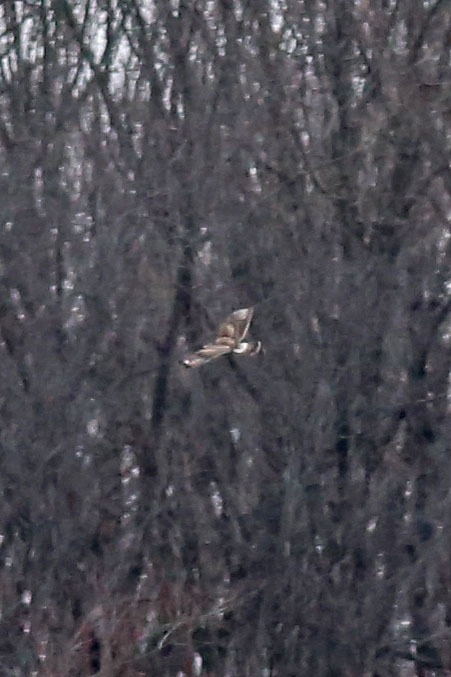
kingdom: Animalia
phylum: Chordata
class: Aves
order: Accipitriformes
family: Accipitridae
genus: Buteo
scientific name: Buteo lagopus
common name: Rough-legged buzzard
